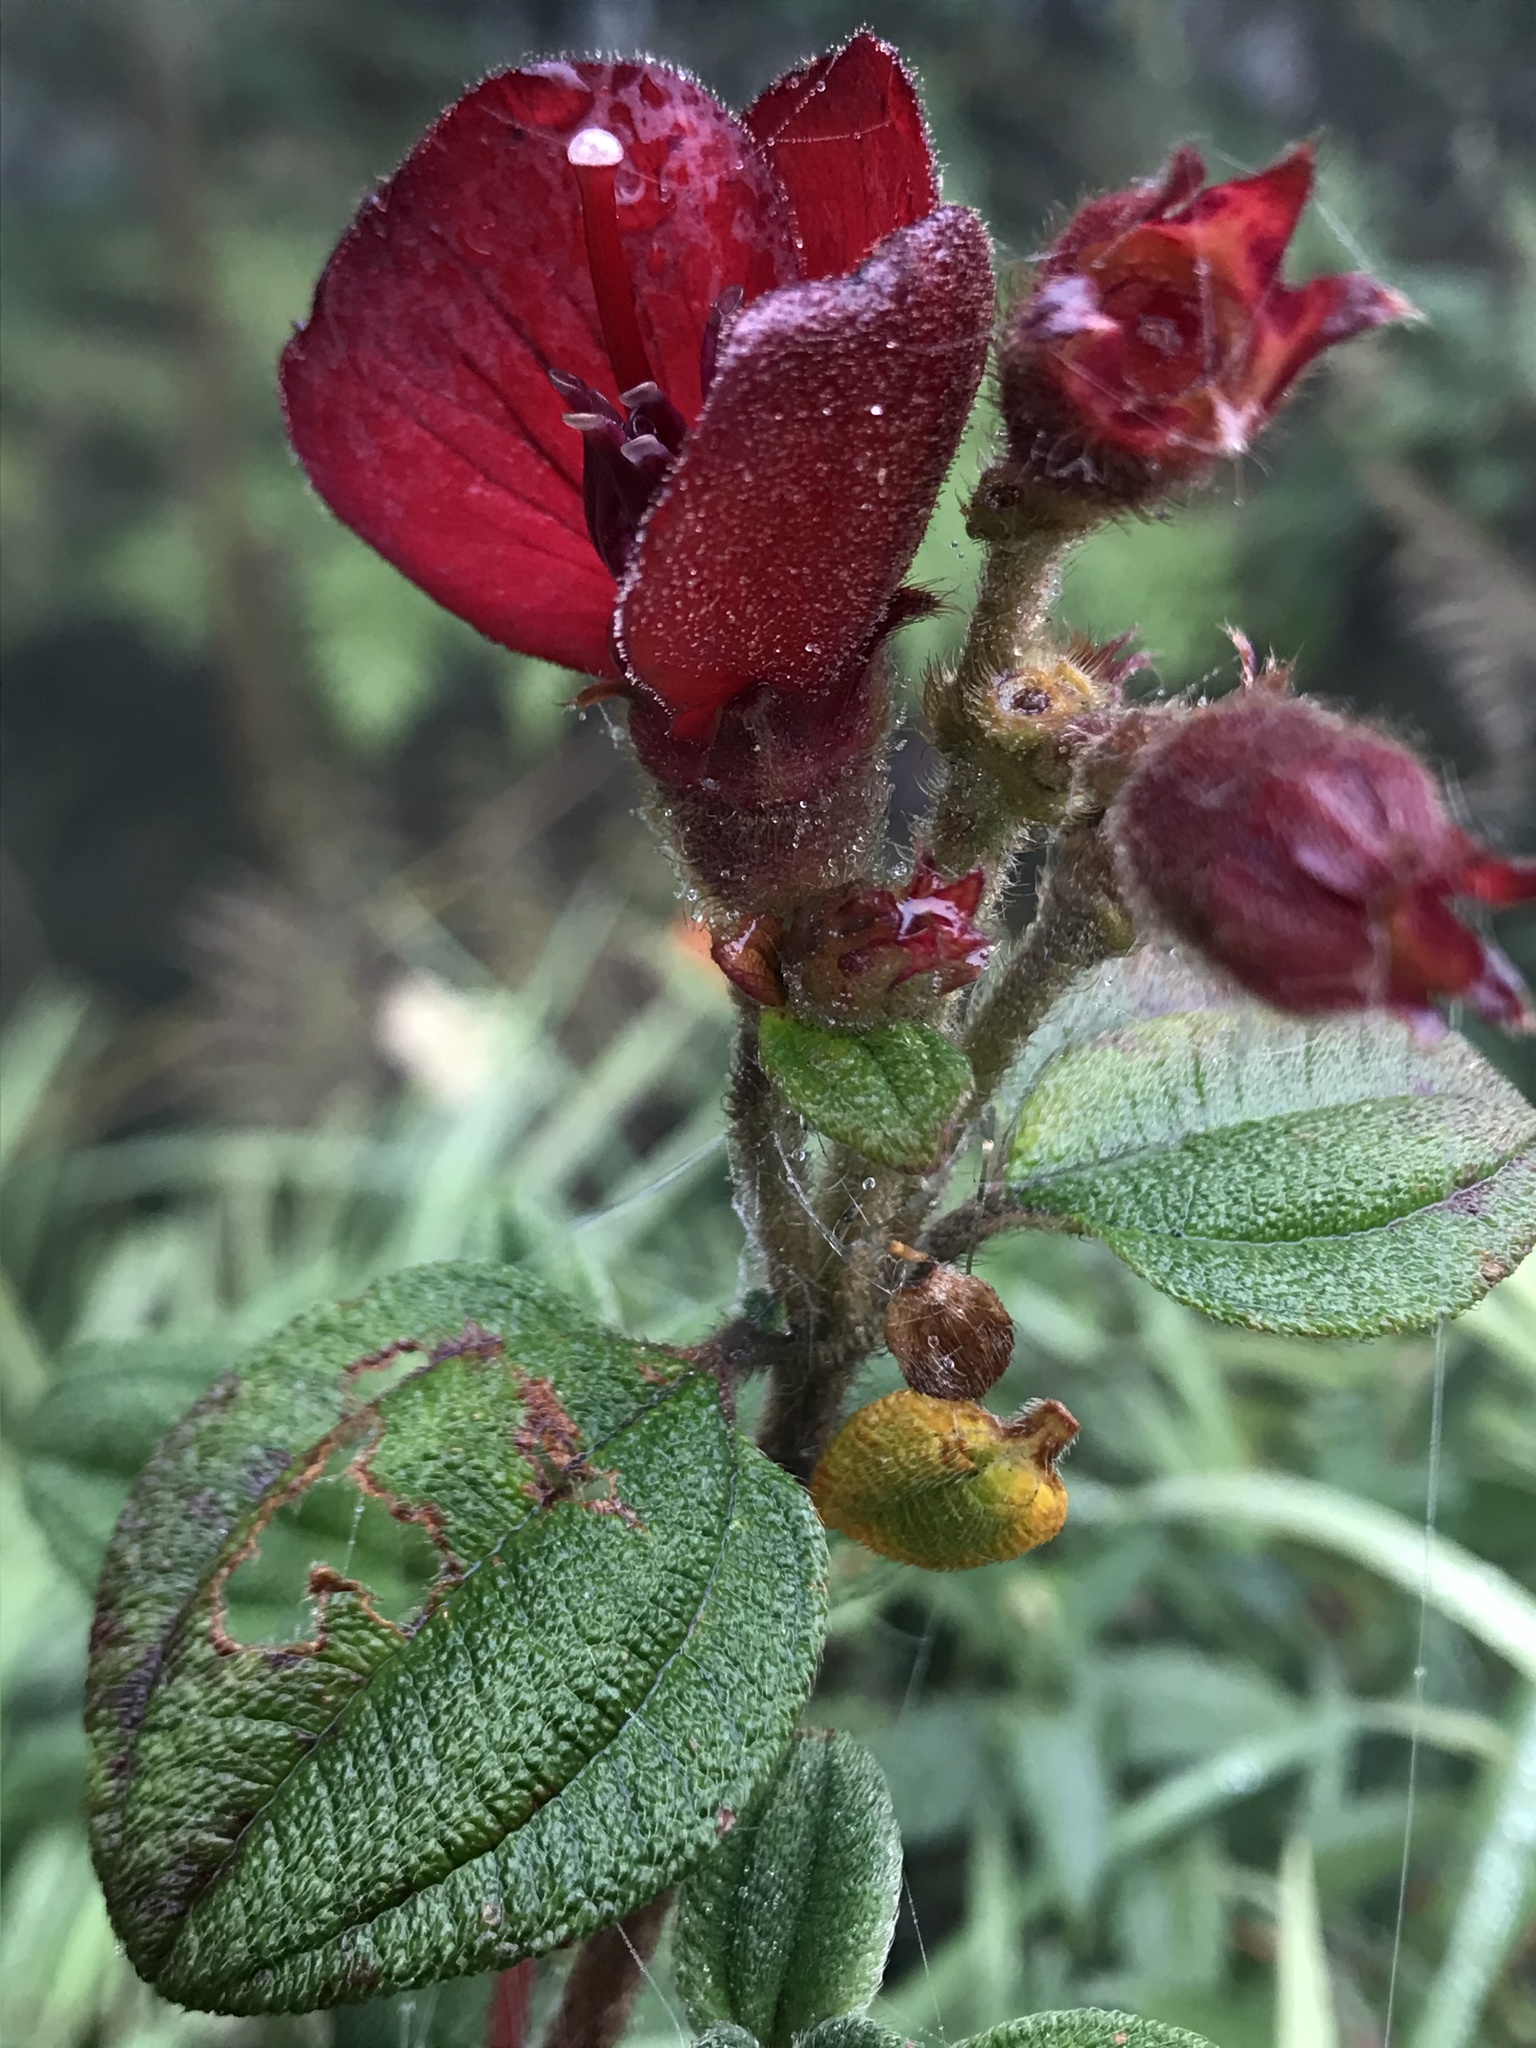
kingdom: Plantae
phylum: Tracheophyta
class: Magnoliopsida
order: Myrtales
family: Melastomataceae
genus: Chaetogastra
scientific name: Chaetogastra grossa
